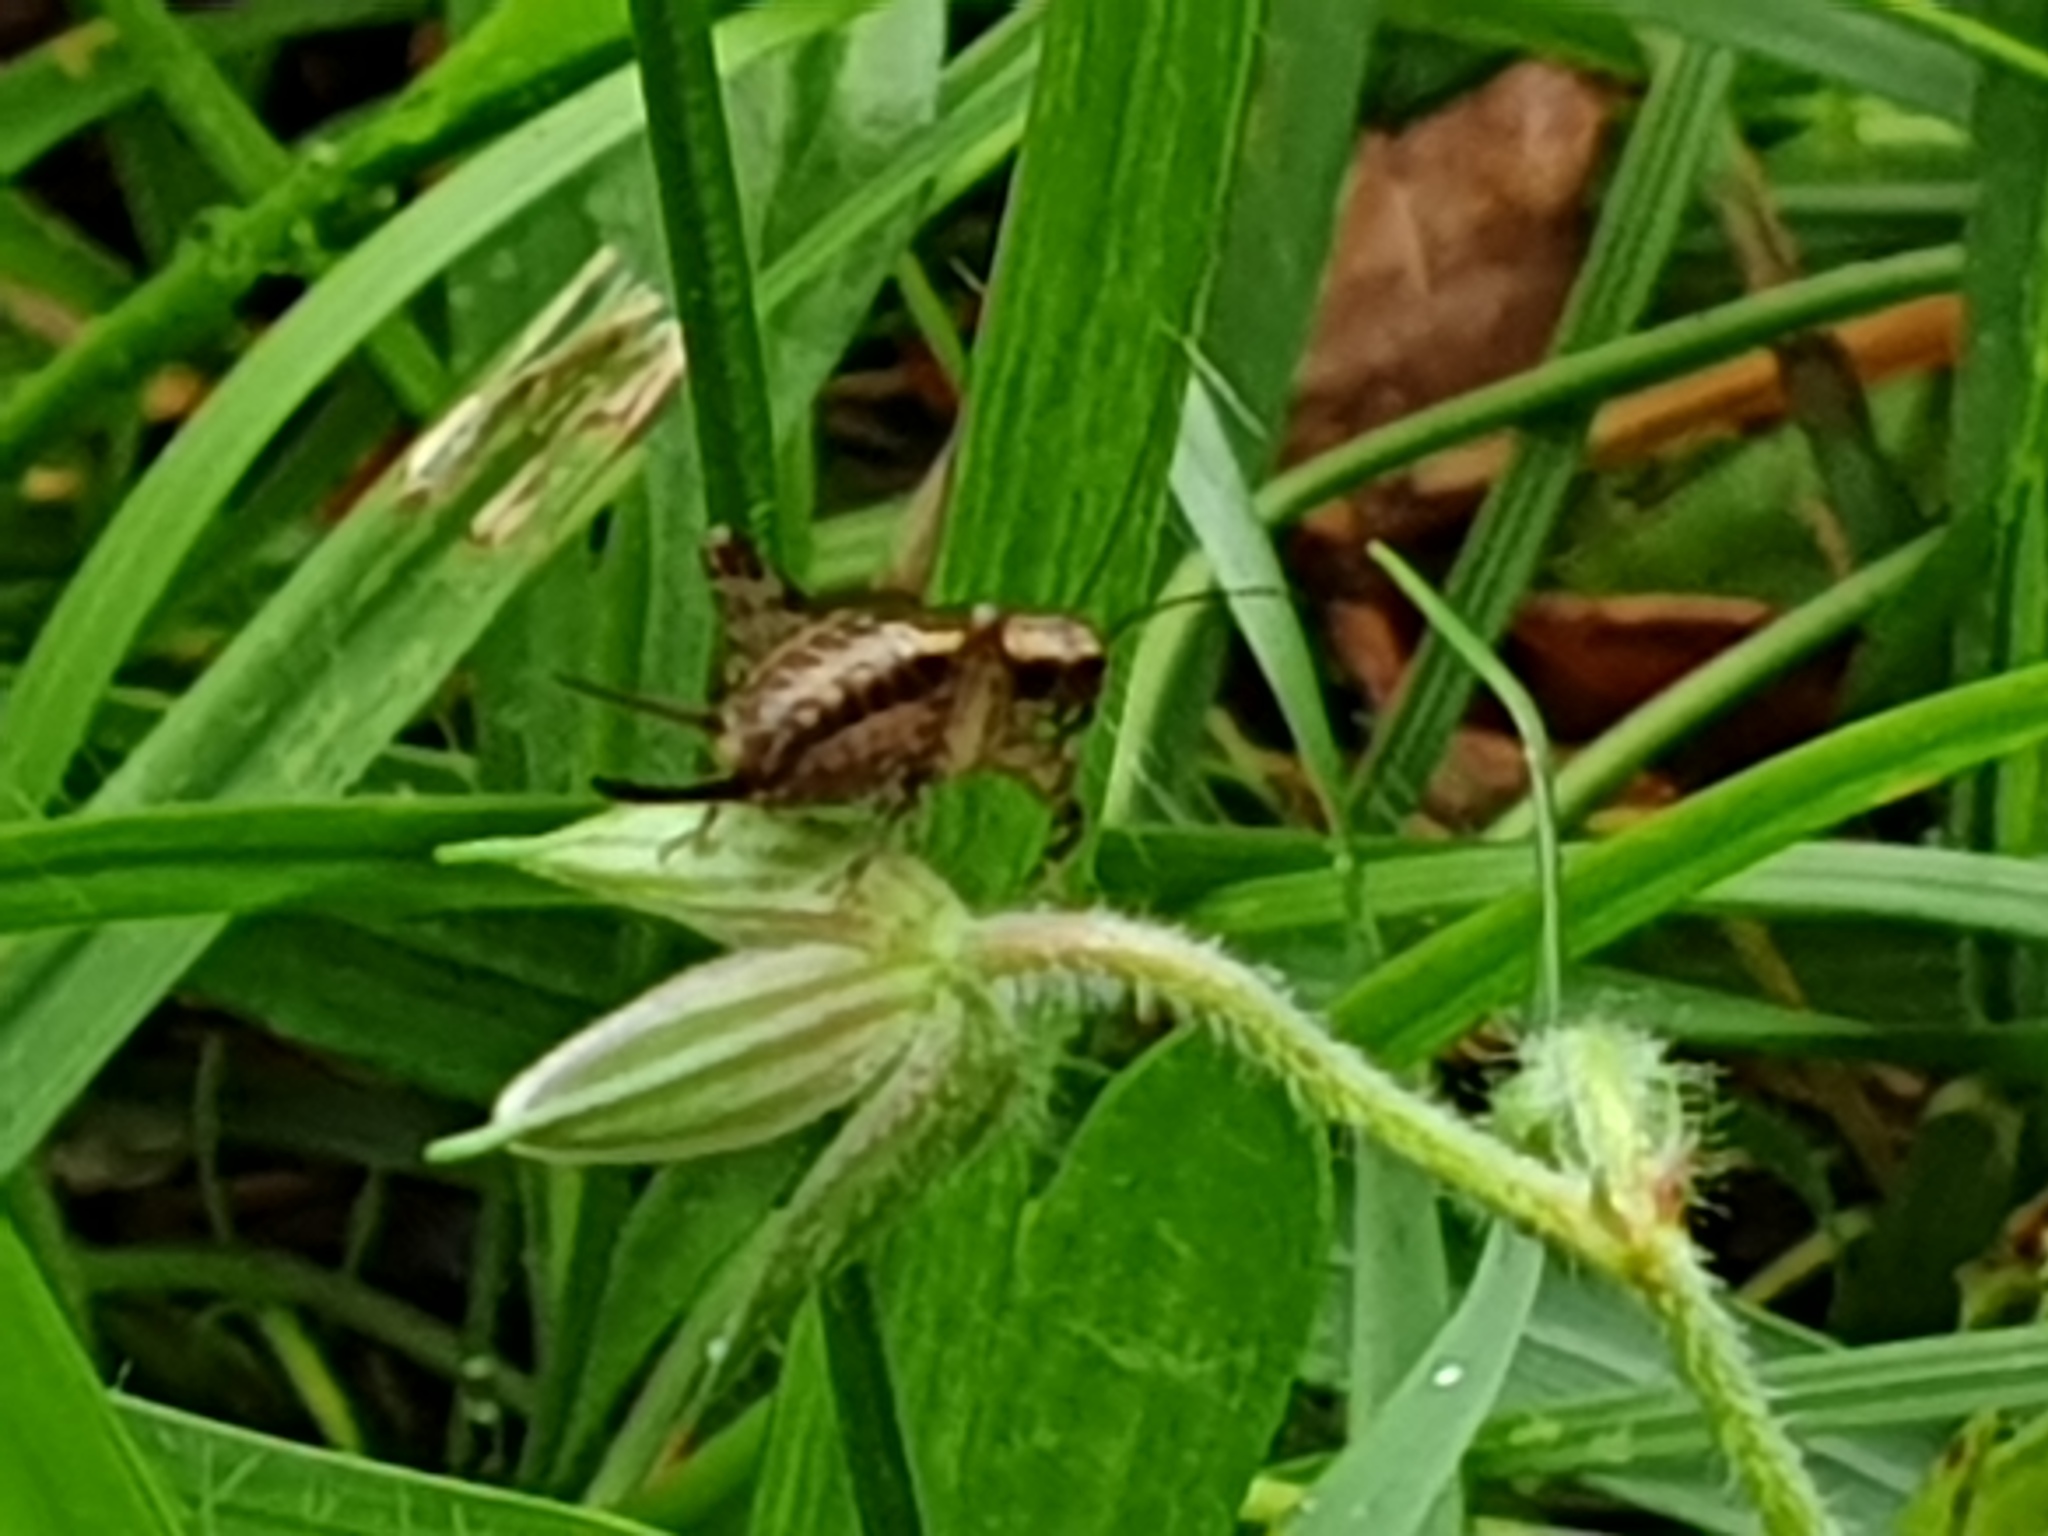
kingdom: Animalia
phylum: Arthropoda
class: Insecta
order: Orthoptera
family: Trigonidiidae
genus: Polionemobius
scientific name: Polionemobius taprobanense
